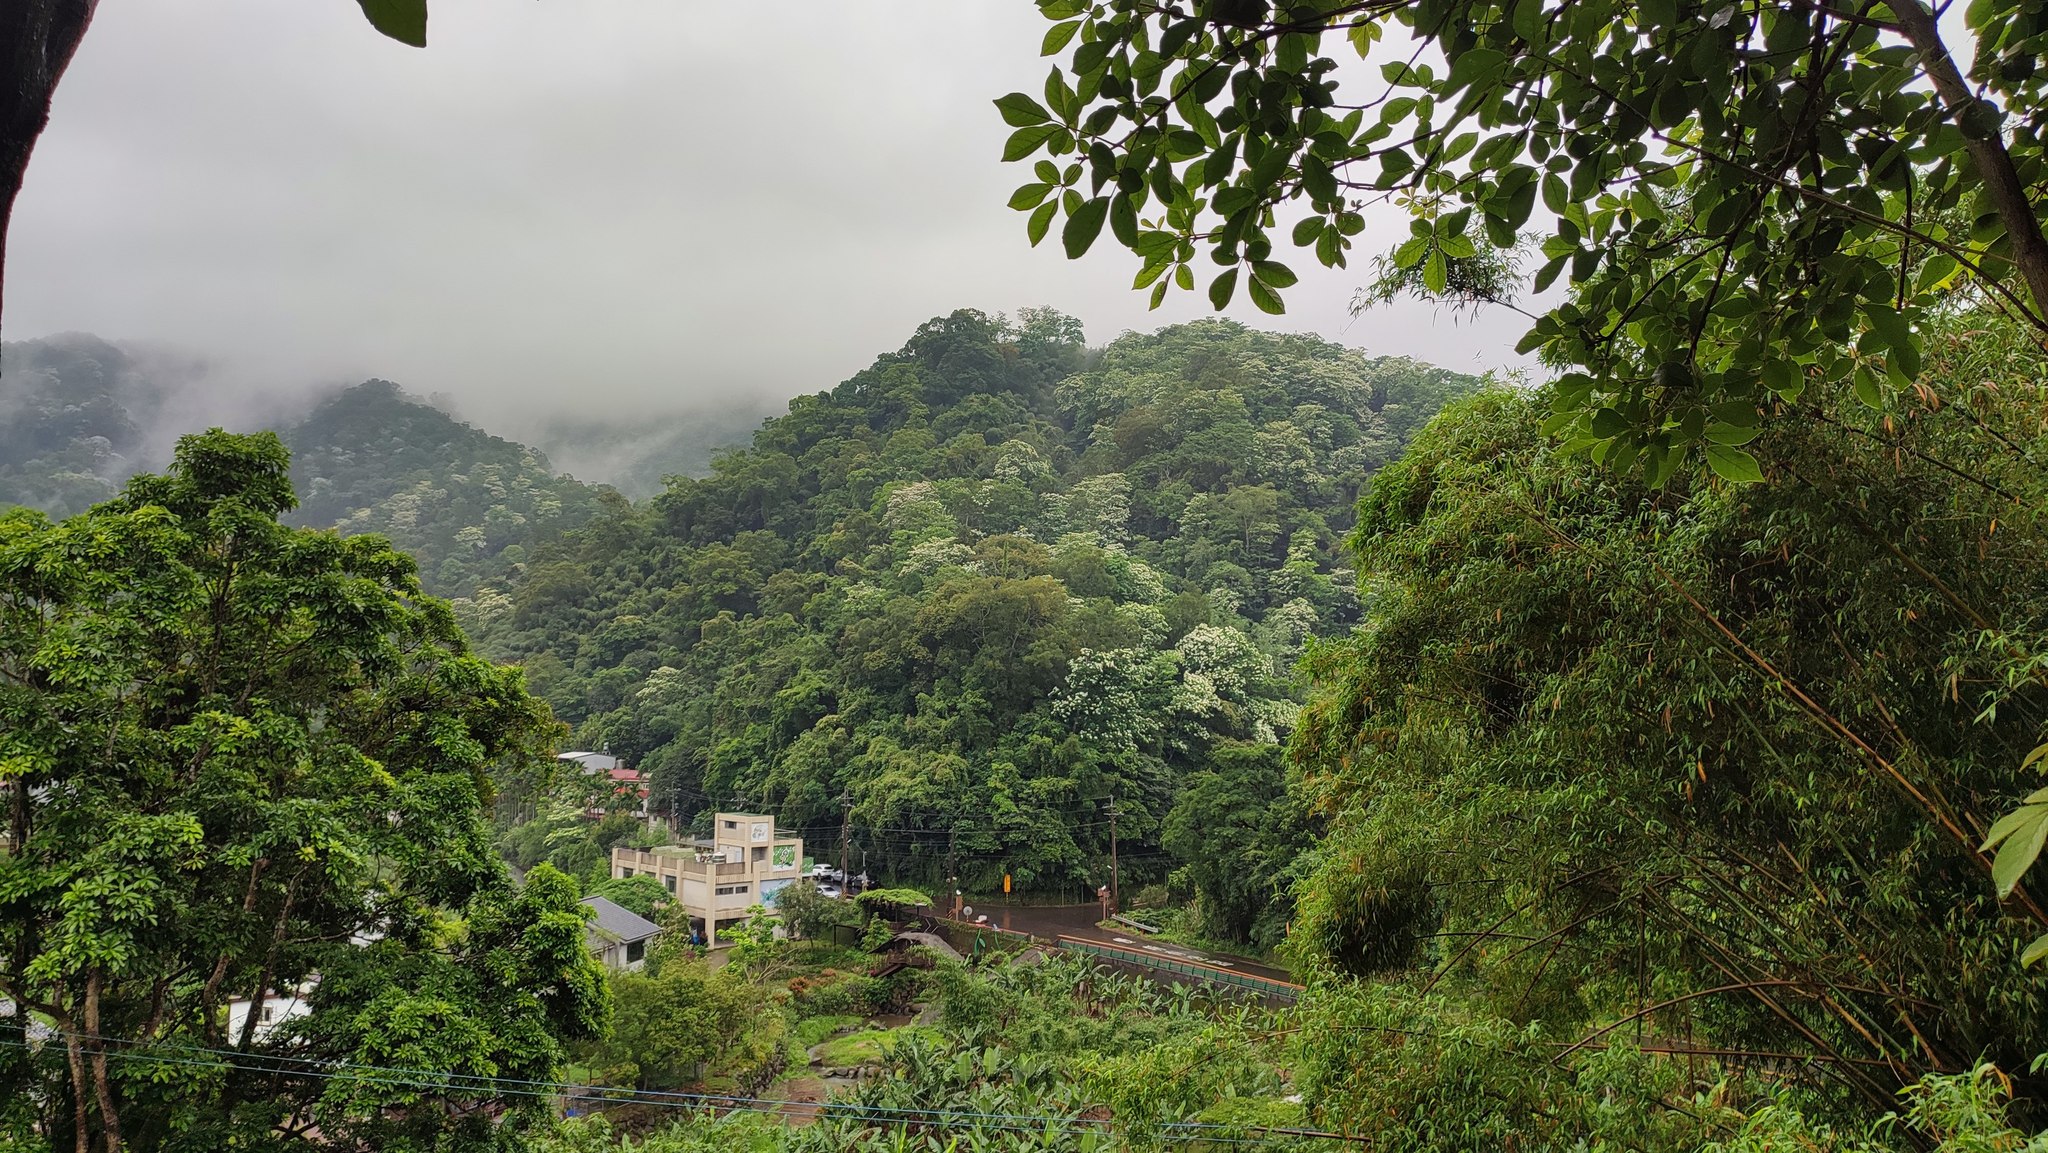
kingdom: Plantae
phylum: Tracheophyta
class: Magnoliopsida
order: Malpighiales
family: Euphorbiaceae
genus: Vernicia
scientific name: Vernicia montana
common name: Mu oil tree
